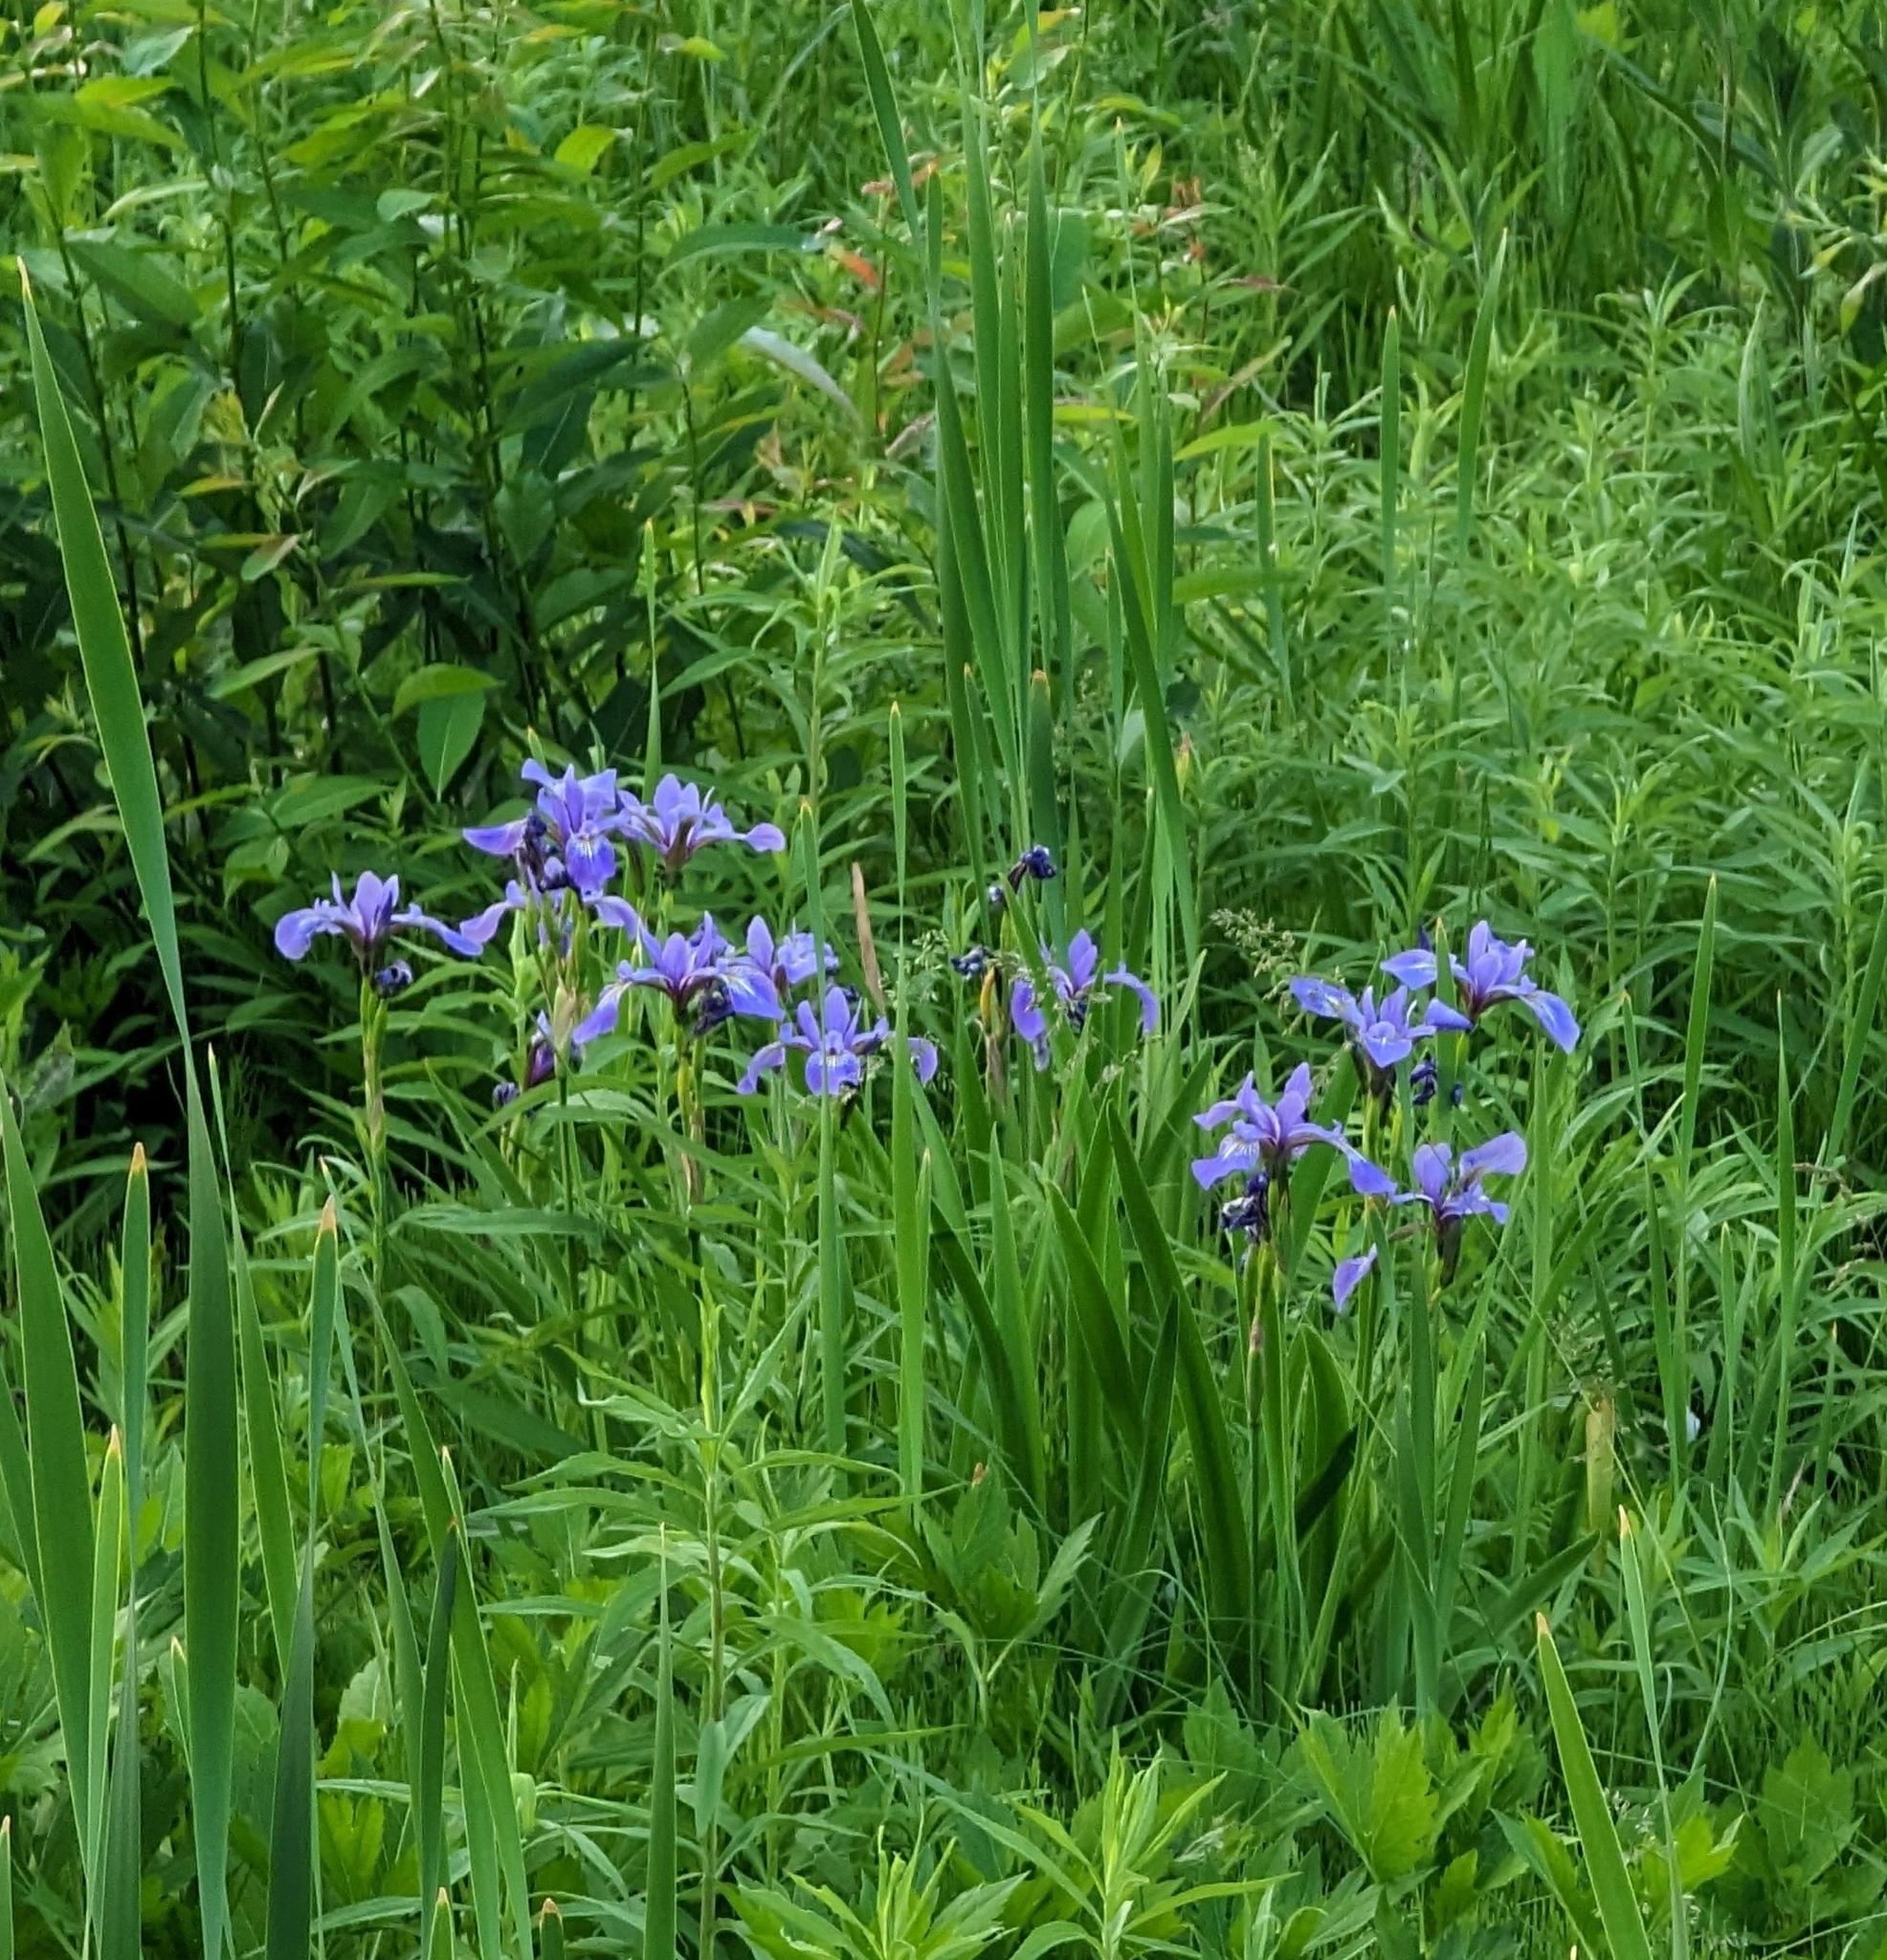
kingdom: Plantae
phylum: Tracheophyta
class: Liliopsida
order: Asparagales
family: Iridaceae
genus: Iris
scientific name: Iris versicolor
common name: Purple iris
